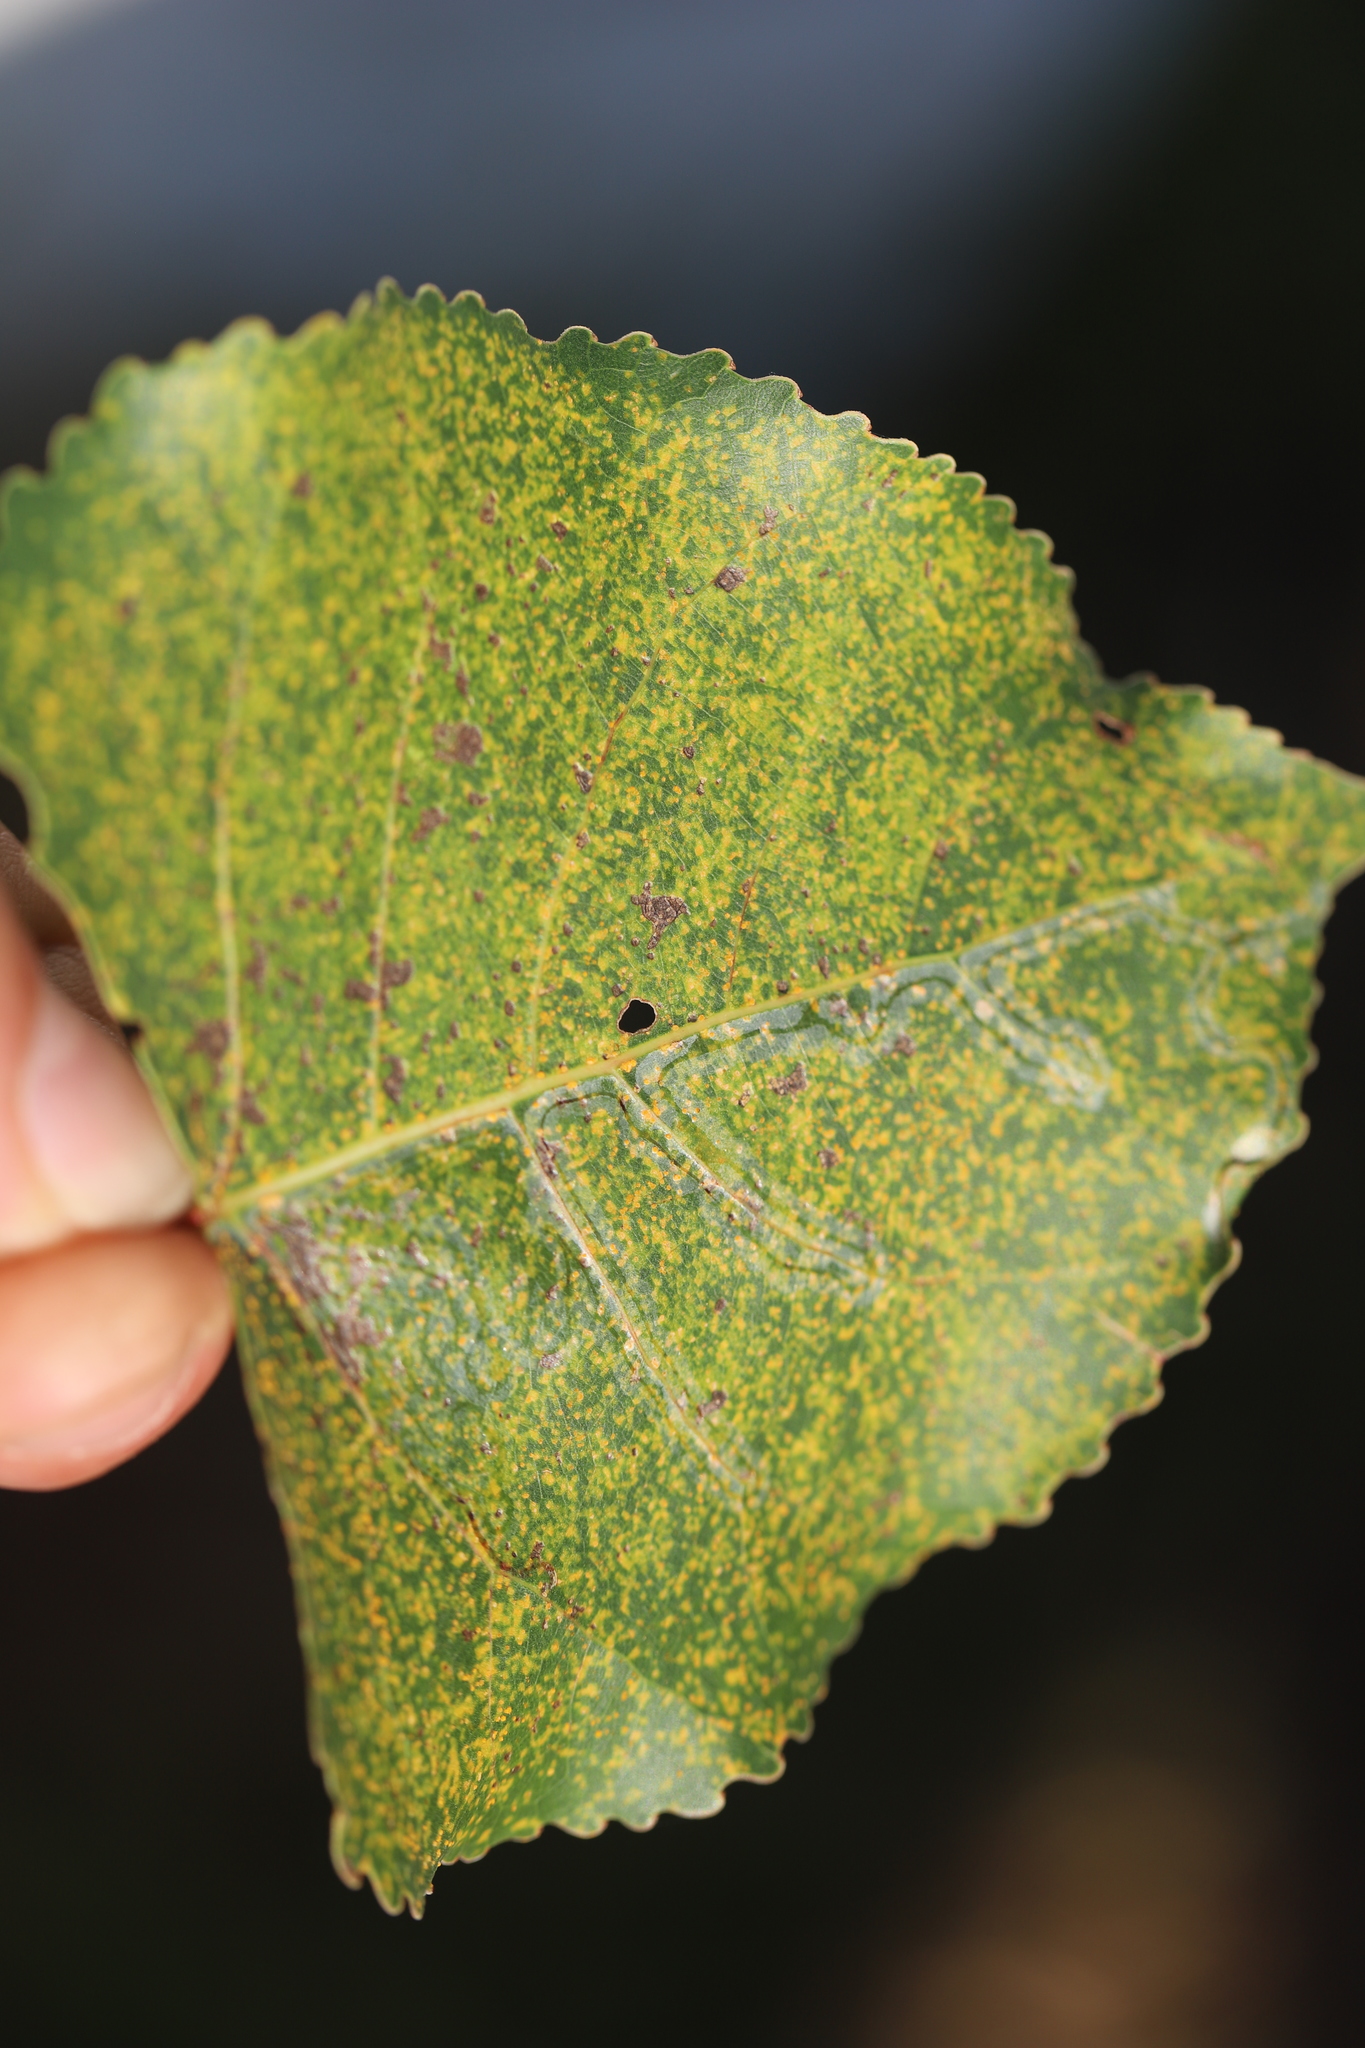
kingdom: Animalia
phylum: Arthropoda
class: Insecta
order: Lepidoptera
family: Gracillariidae
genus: Phyllocnistis
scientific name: Phyllocnistis populiella
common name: Aspen serpentine leafminer moth
